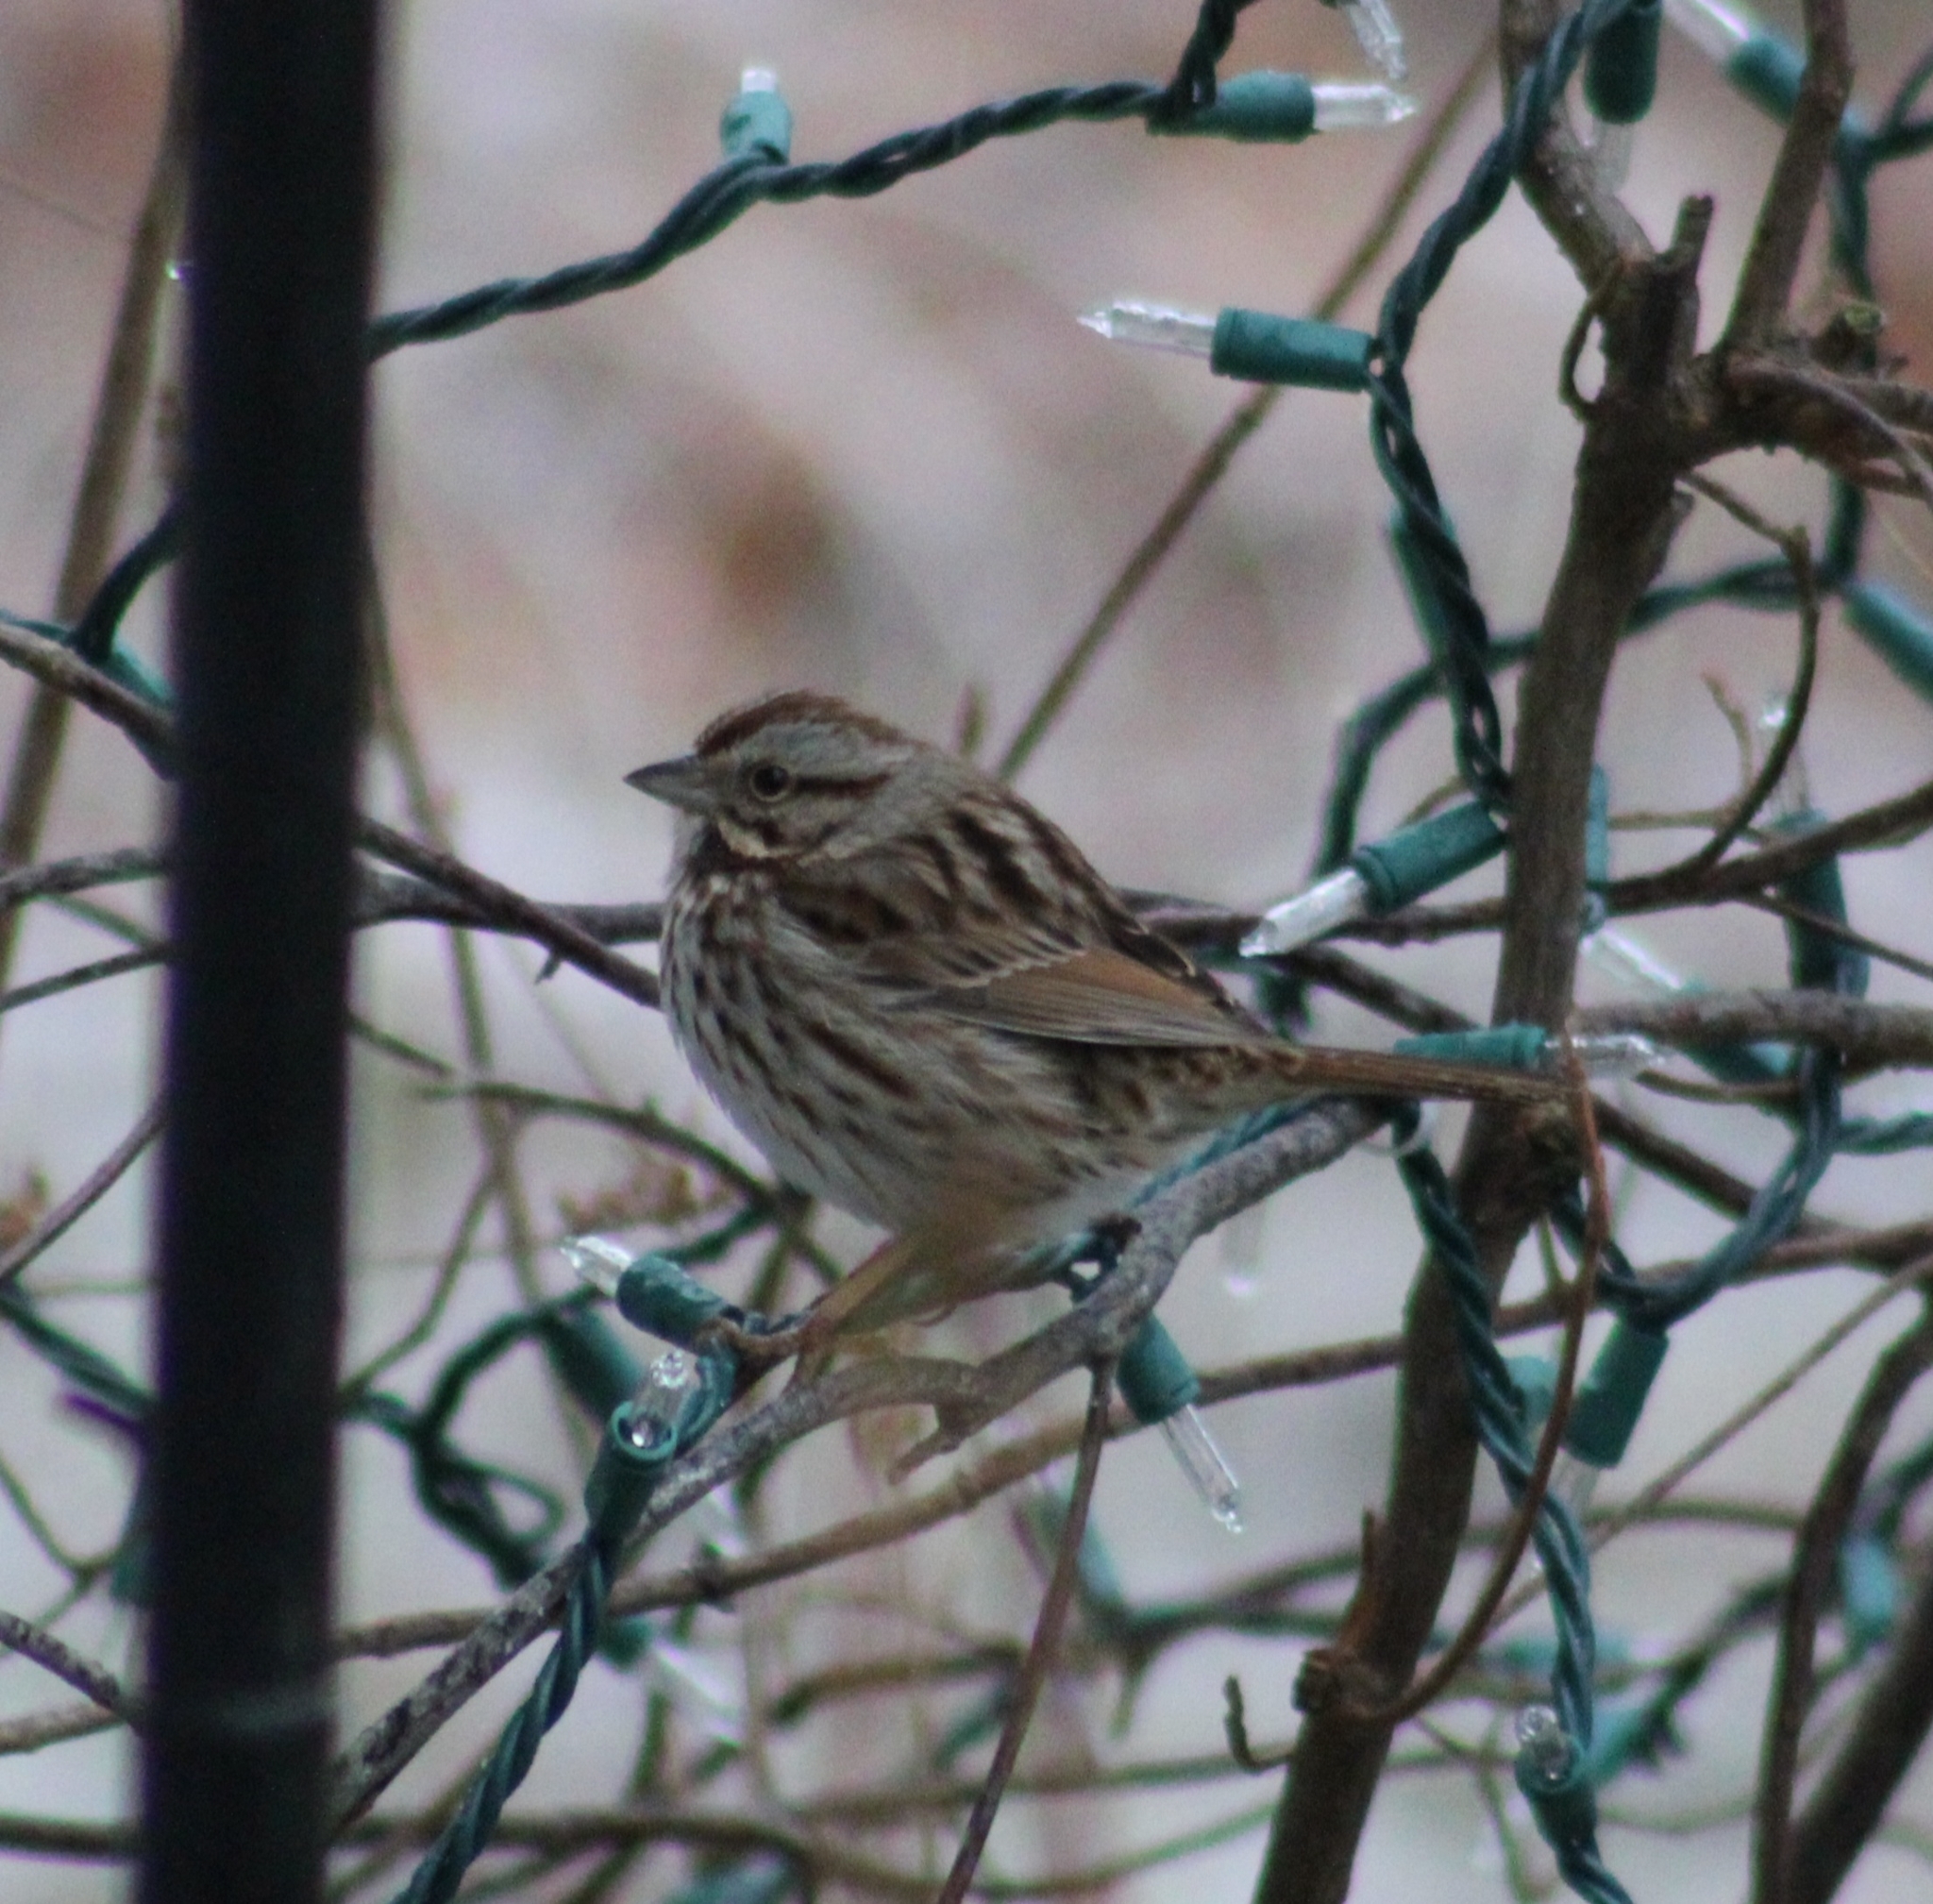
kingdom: Animalia
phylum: Chordata
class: Aves
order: Passeriformes
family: Passerellidae
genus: Melospiza
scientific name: Melospiza melodia
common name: Song sparrow
